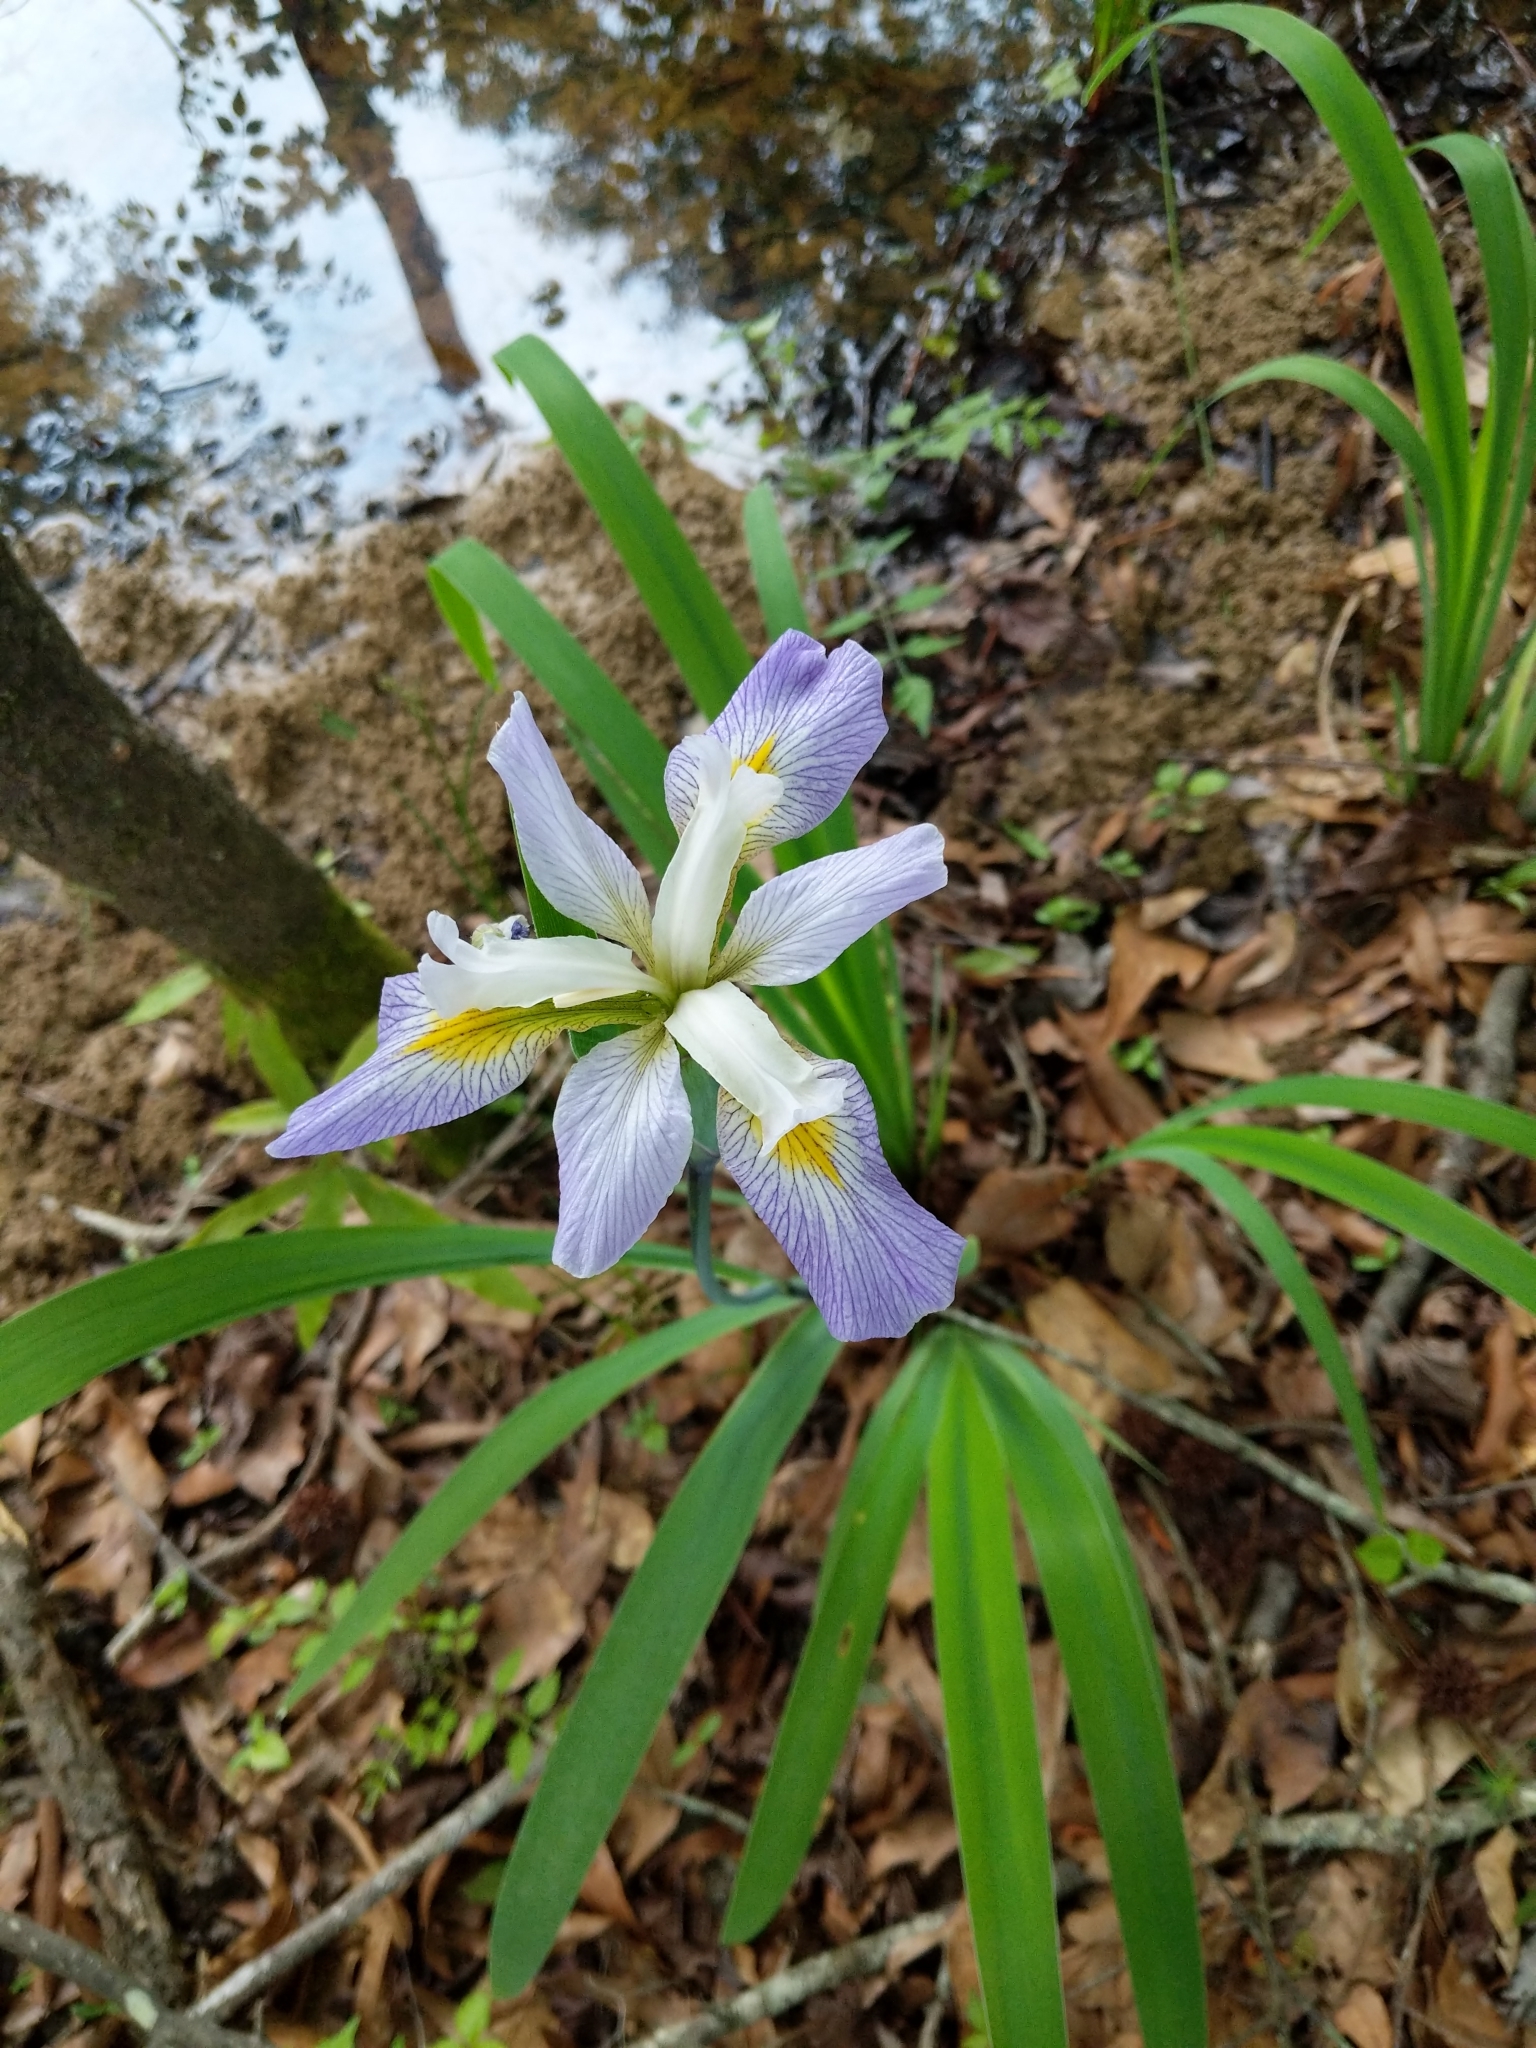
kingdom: Plantae
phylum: Tracheophyta
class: Liliopsida
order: Asparagales
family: Iridaceae
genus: Iris
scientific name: Iris virginica
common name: Southern blue flag
